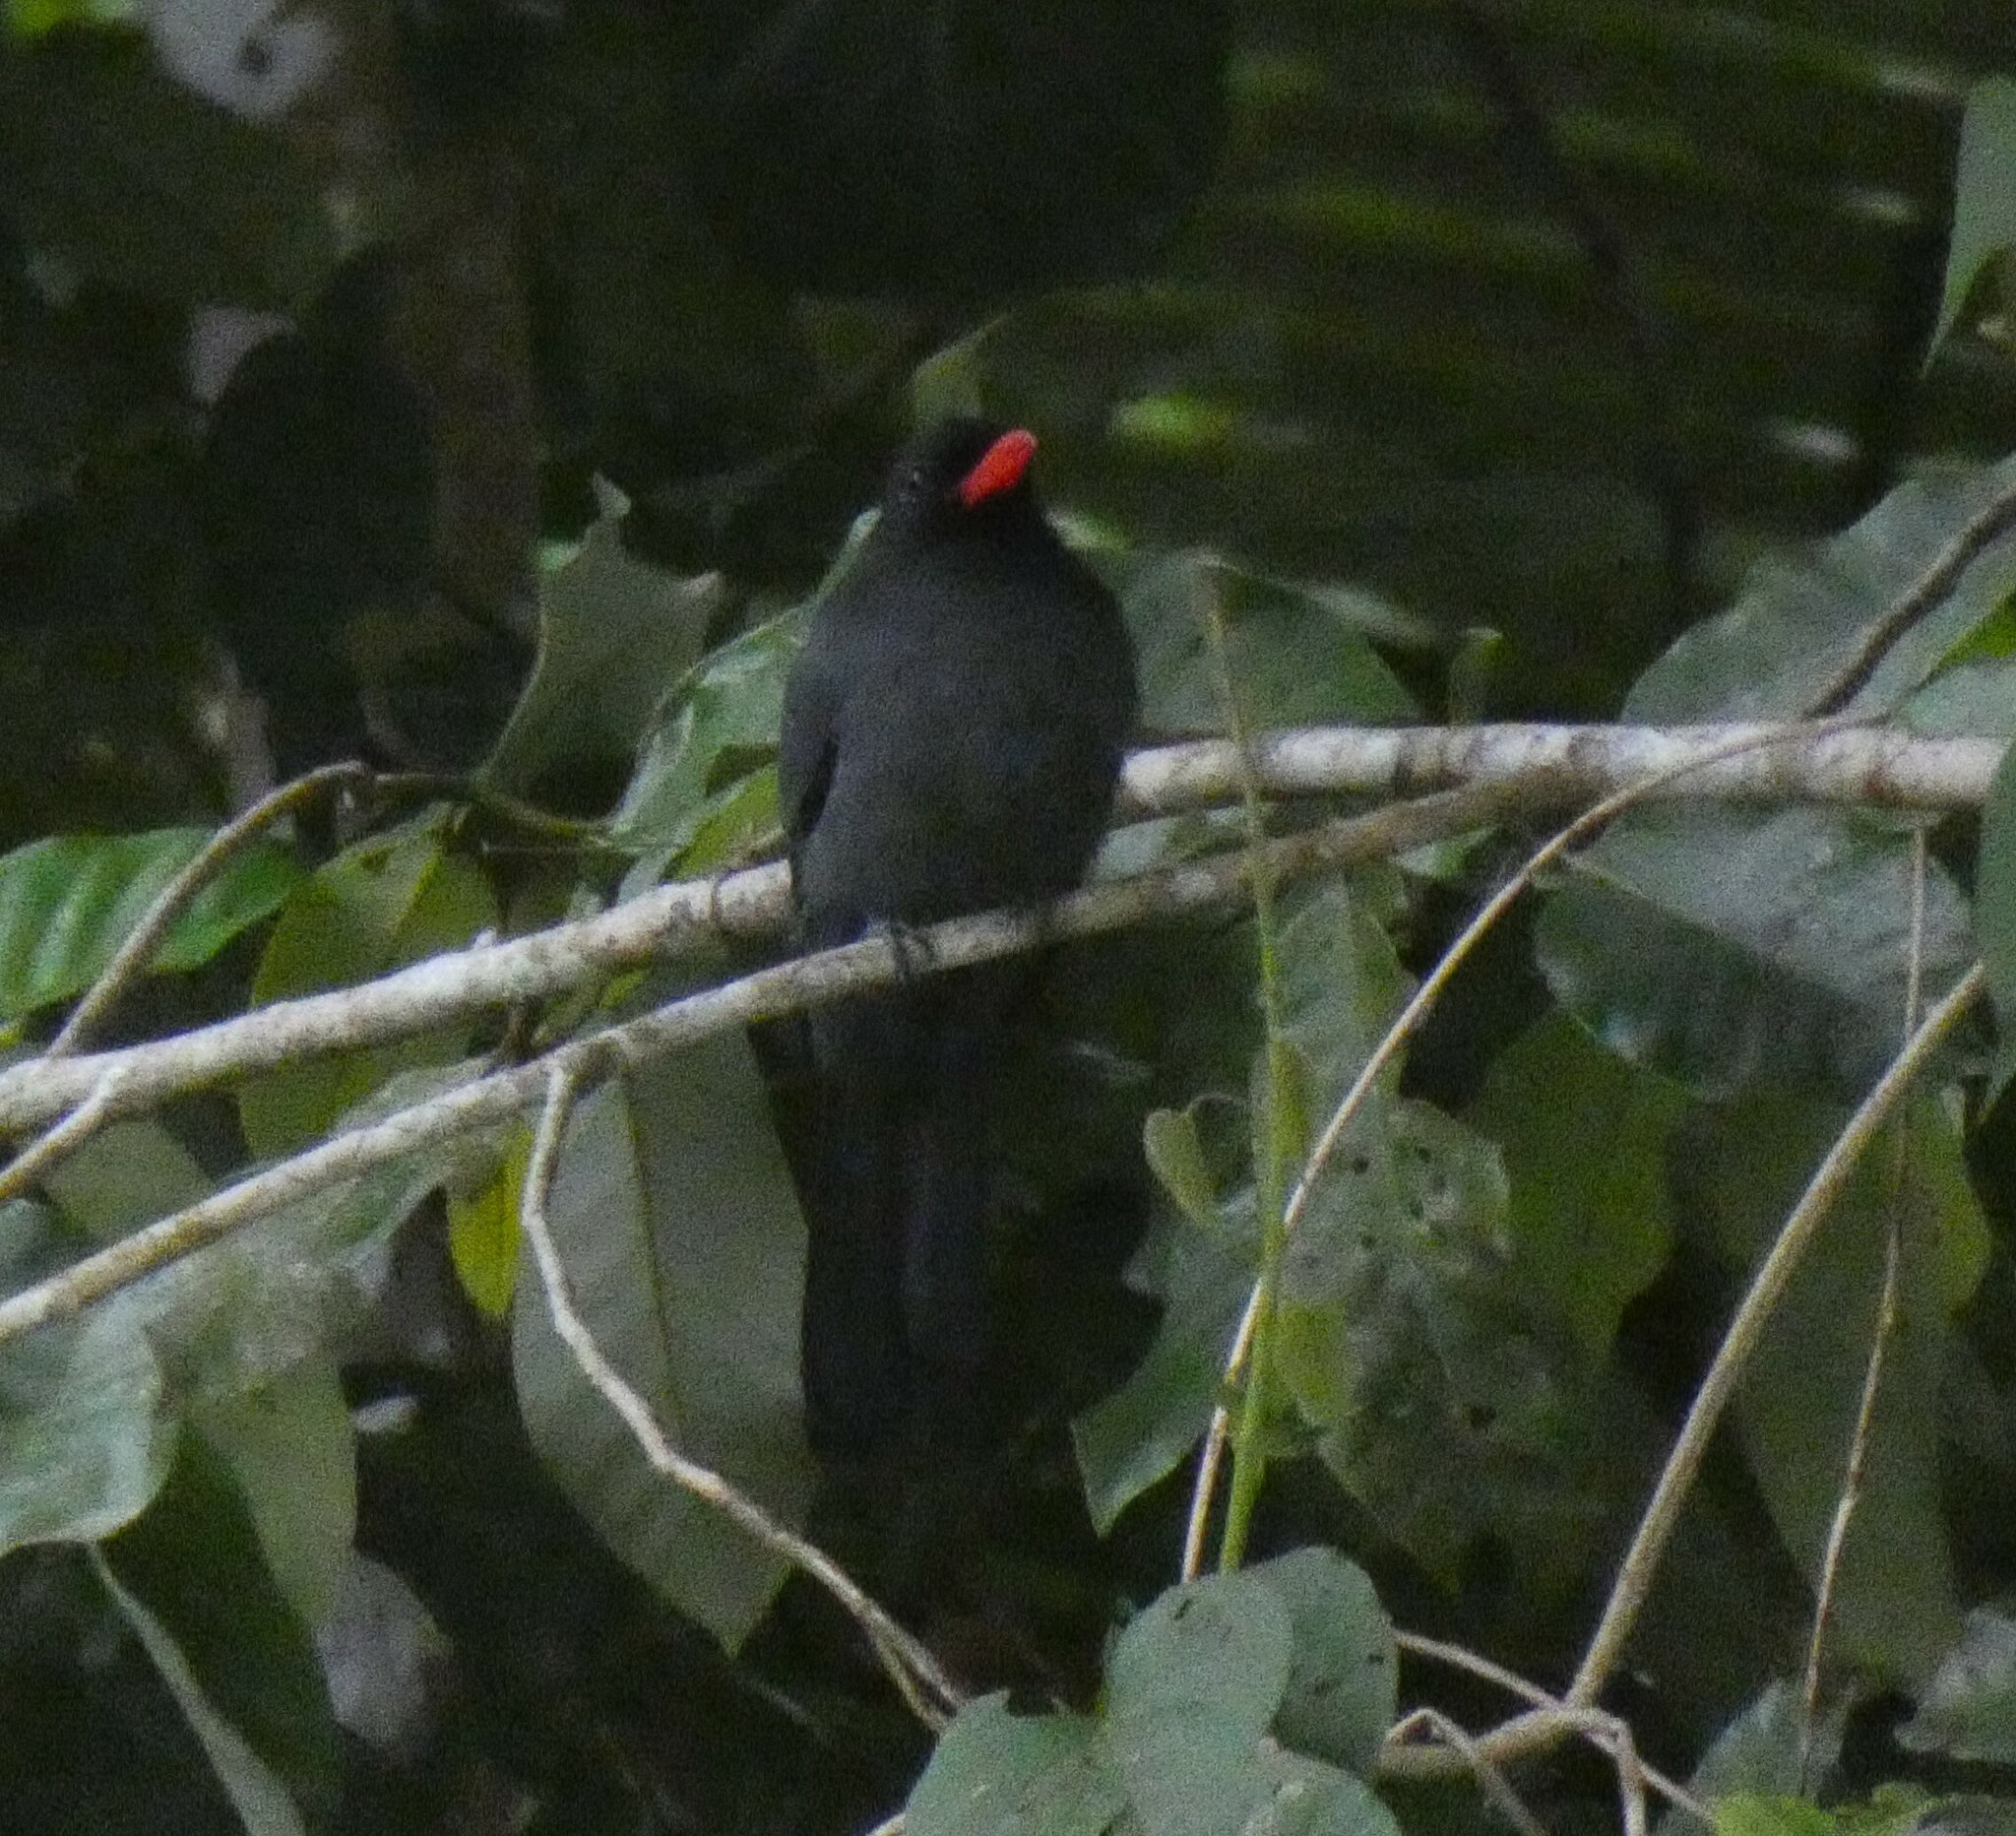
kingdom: Animalia
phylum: Chordata
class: Aves
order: Piciformes
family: Bucconidae
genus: Monasa
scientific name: Monasa nigrifrons
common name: Black-fronted nunbird
